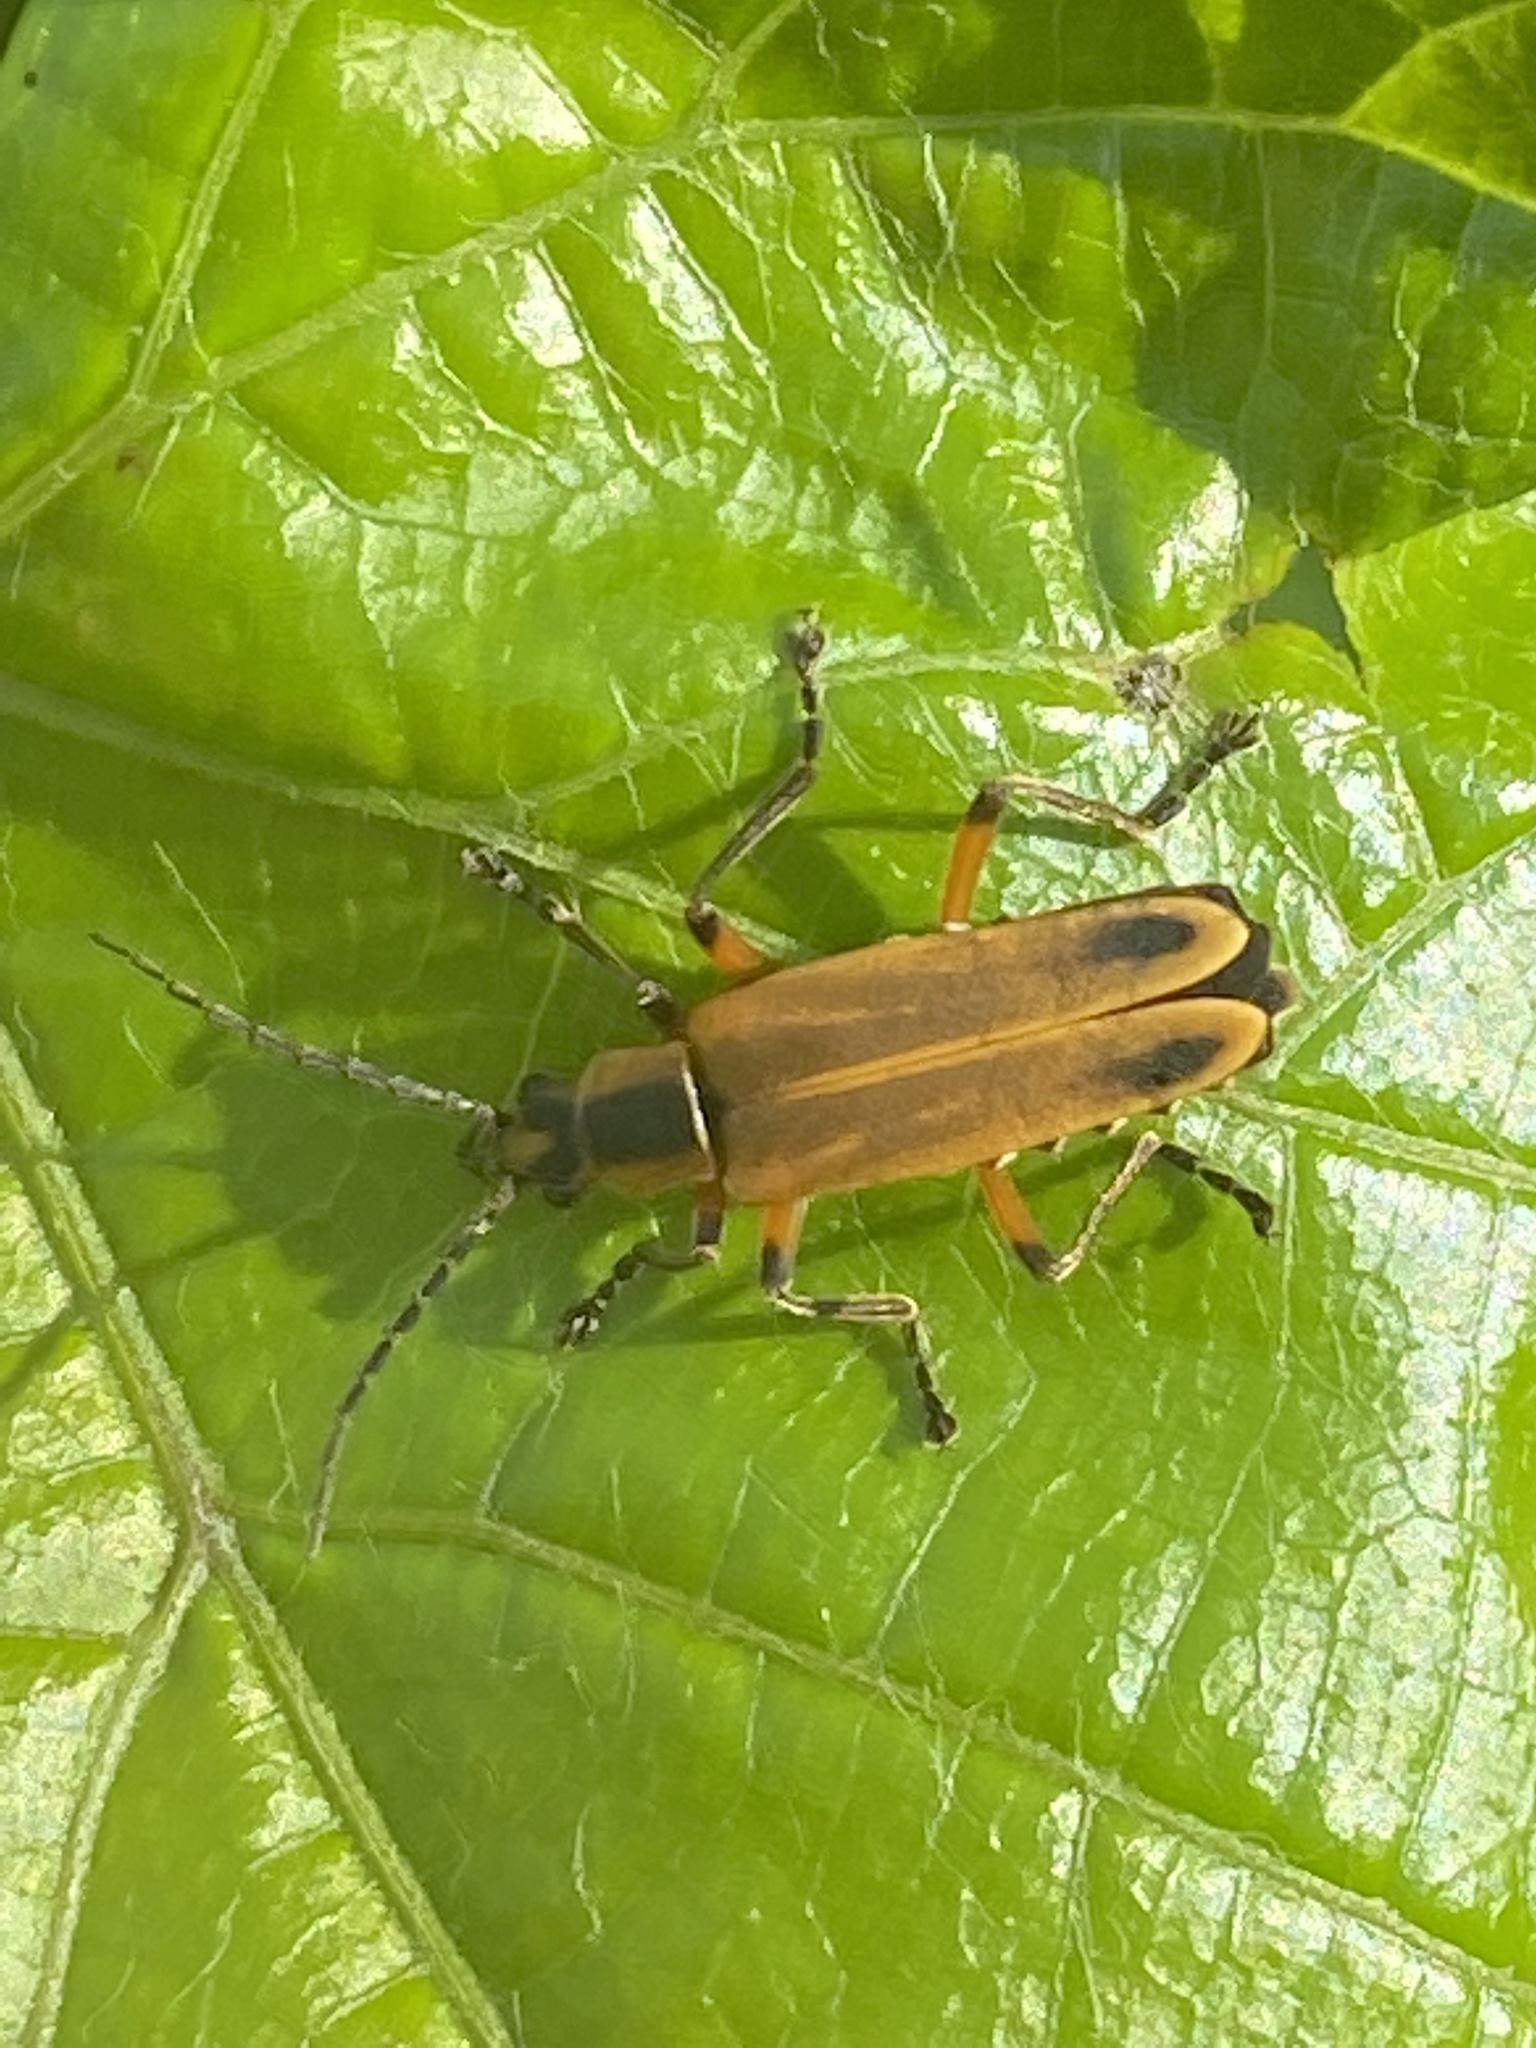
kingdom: Animalia
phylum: Arthropoda
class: Insecta
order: Coleoptera
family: Cantharidae
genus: Chauliognathus
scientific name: Chauliognathus marginatus
